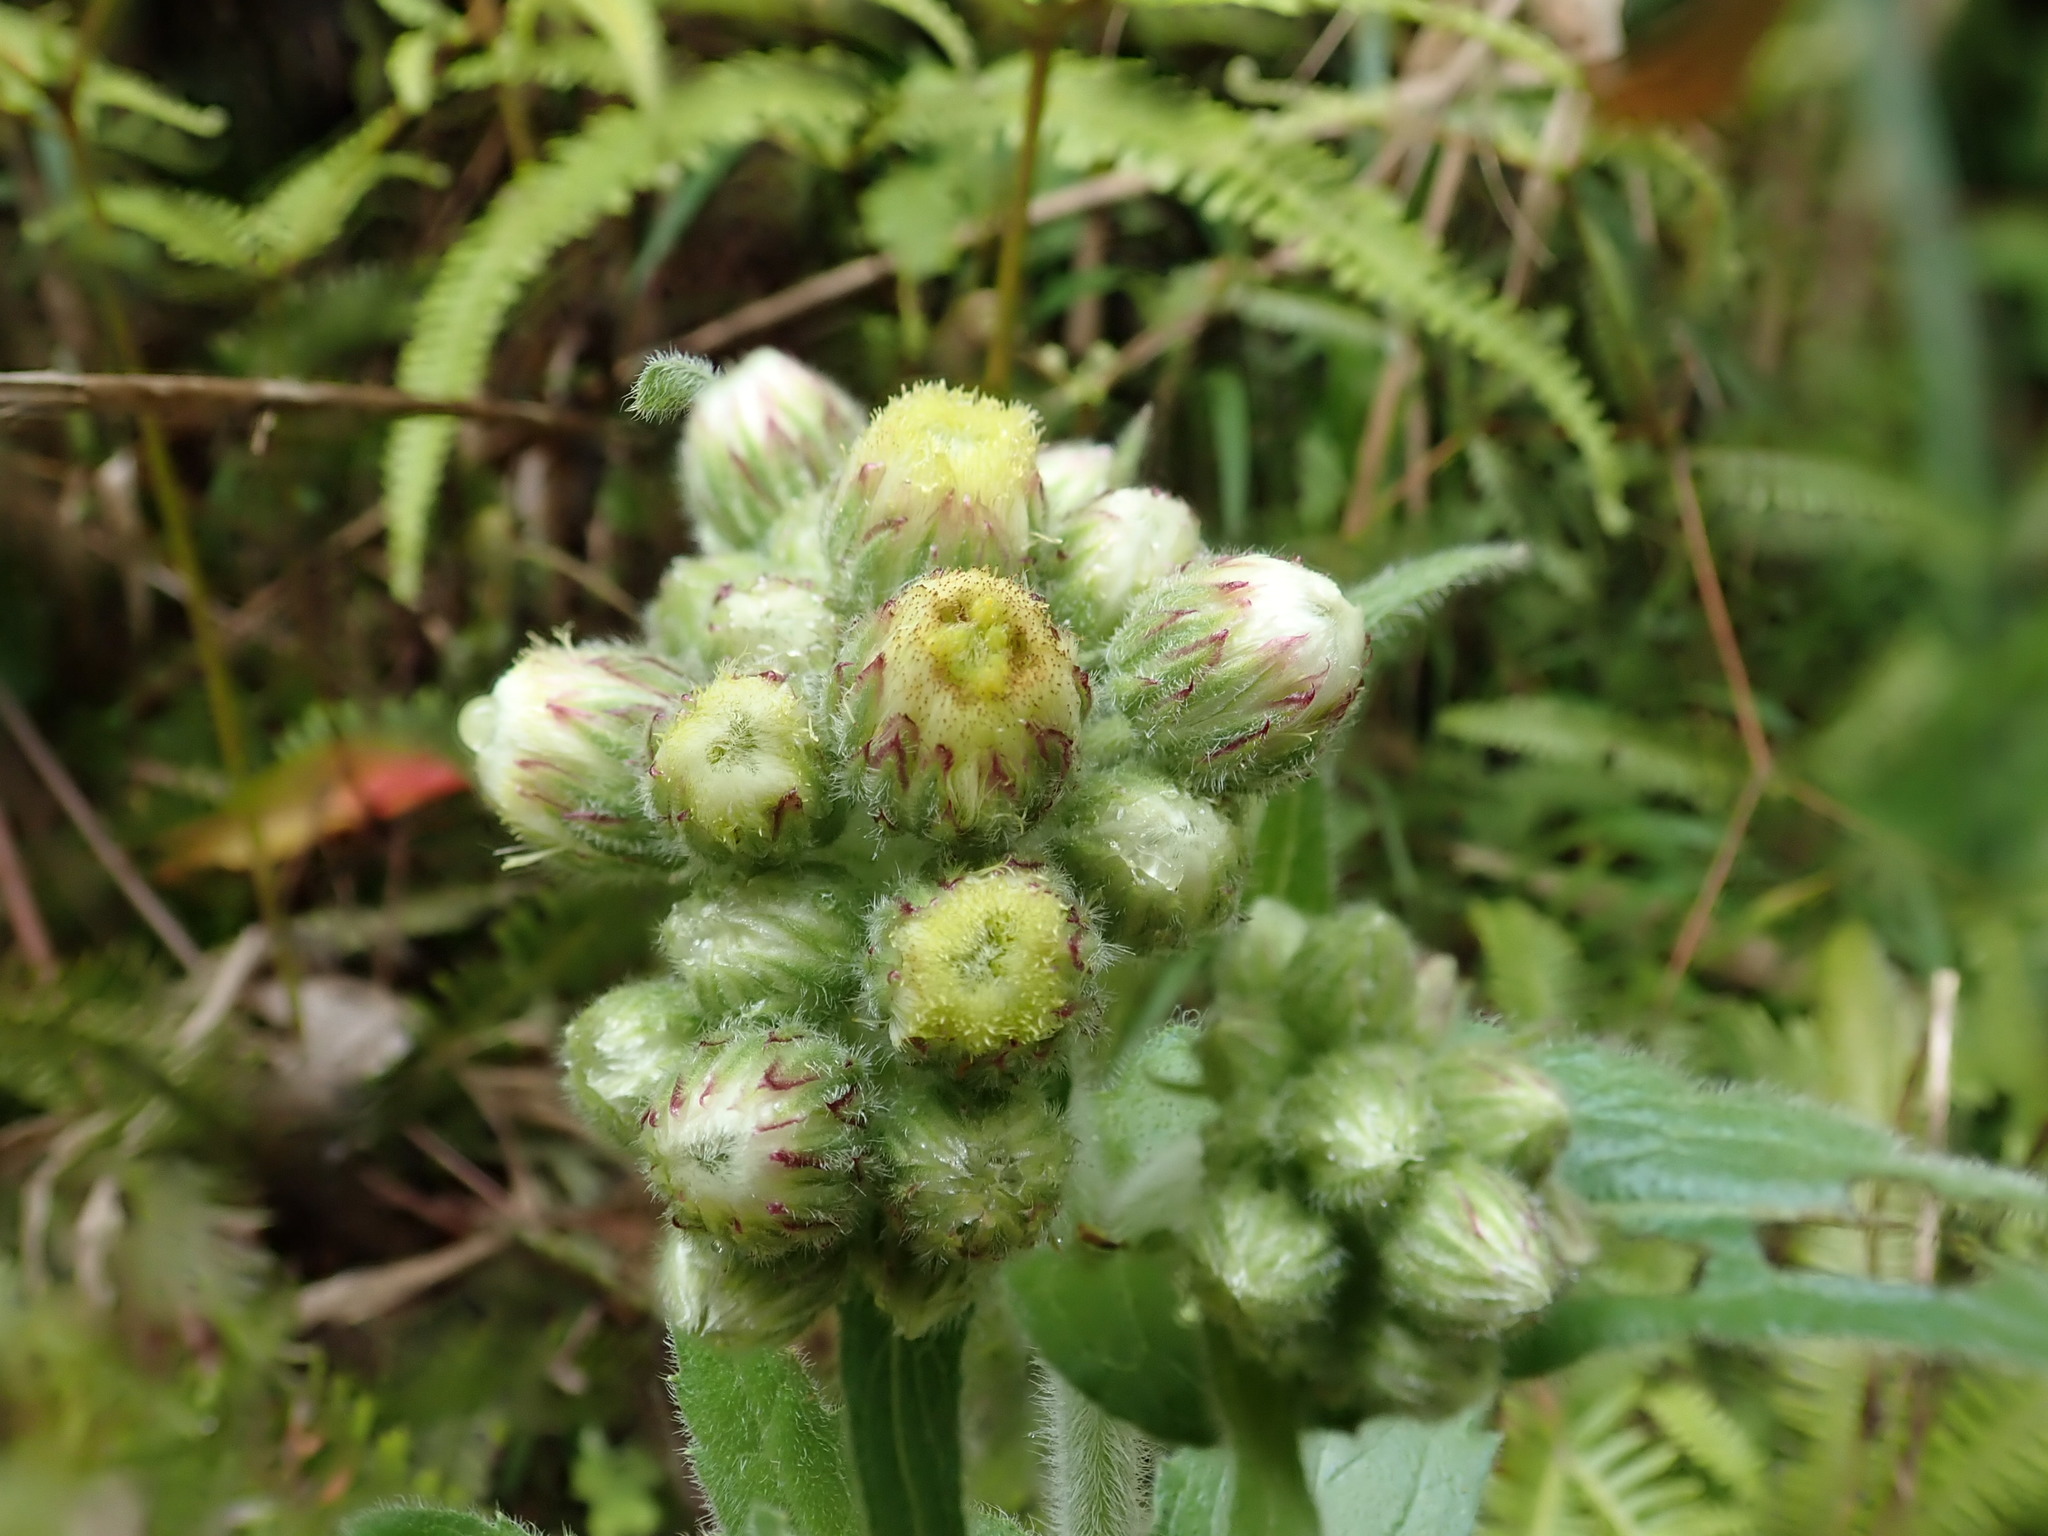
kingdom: Plantae
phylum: Tracheophyta
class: Magnoliopsida
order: Asterales
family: Asteraceae
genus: Eschenbachia
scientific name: Eschenbachia japonica
